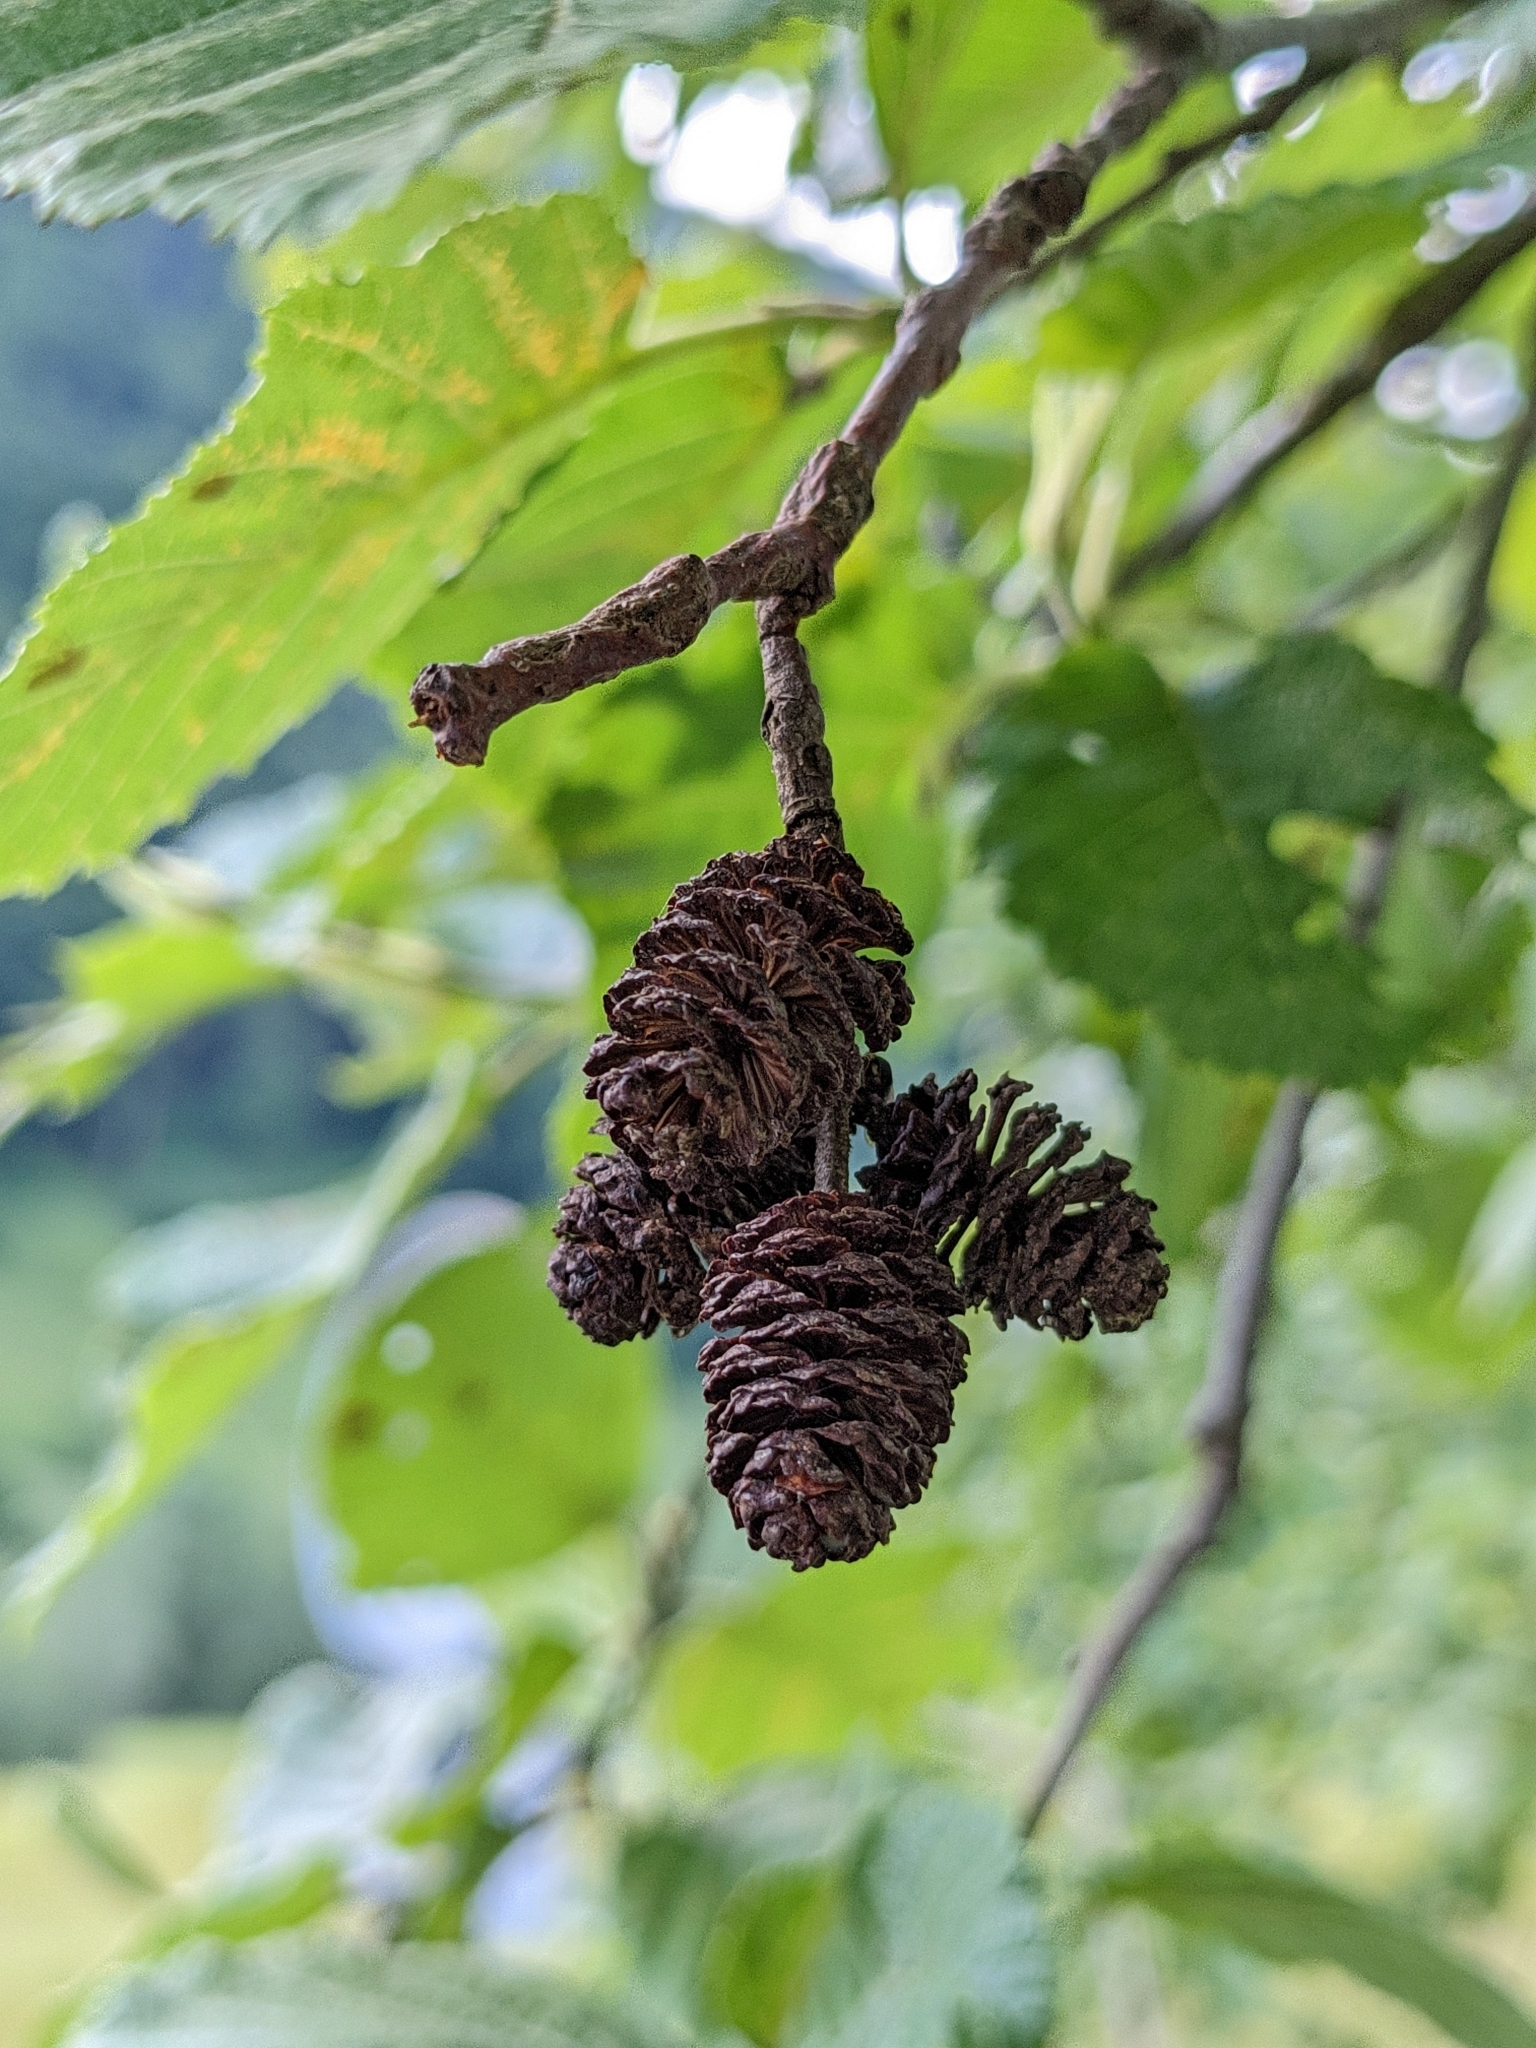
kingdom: Plantae
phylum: Tracheophyta
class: Magnoliopsida
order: Fagales
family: Betulaceae
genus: Alnus
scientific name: Alnus incana
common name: Grey alder
